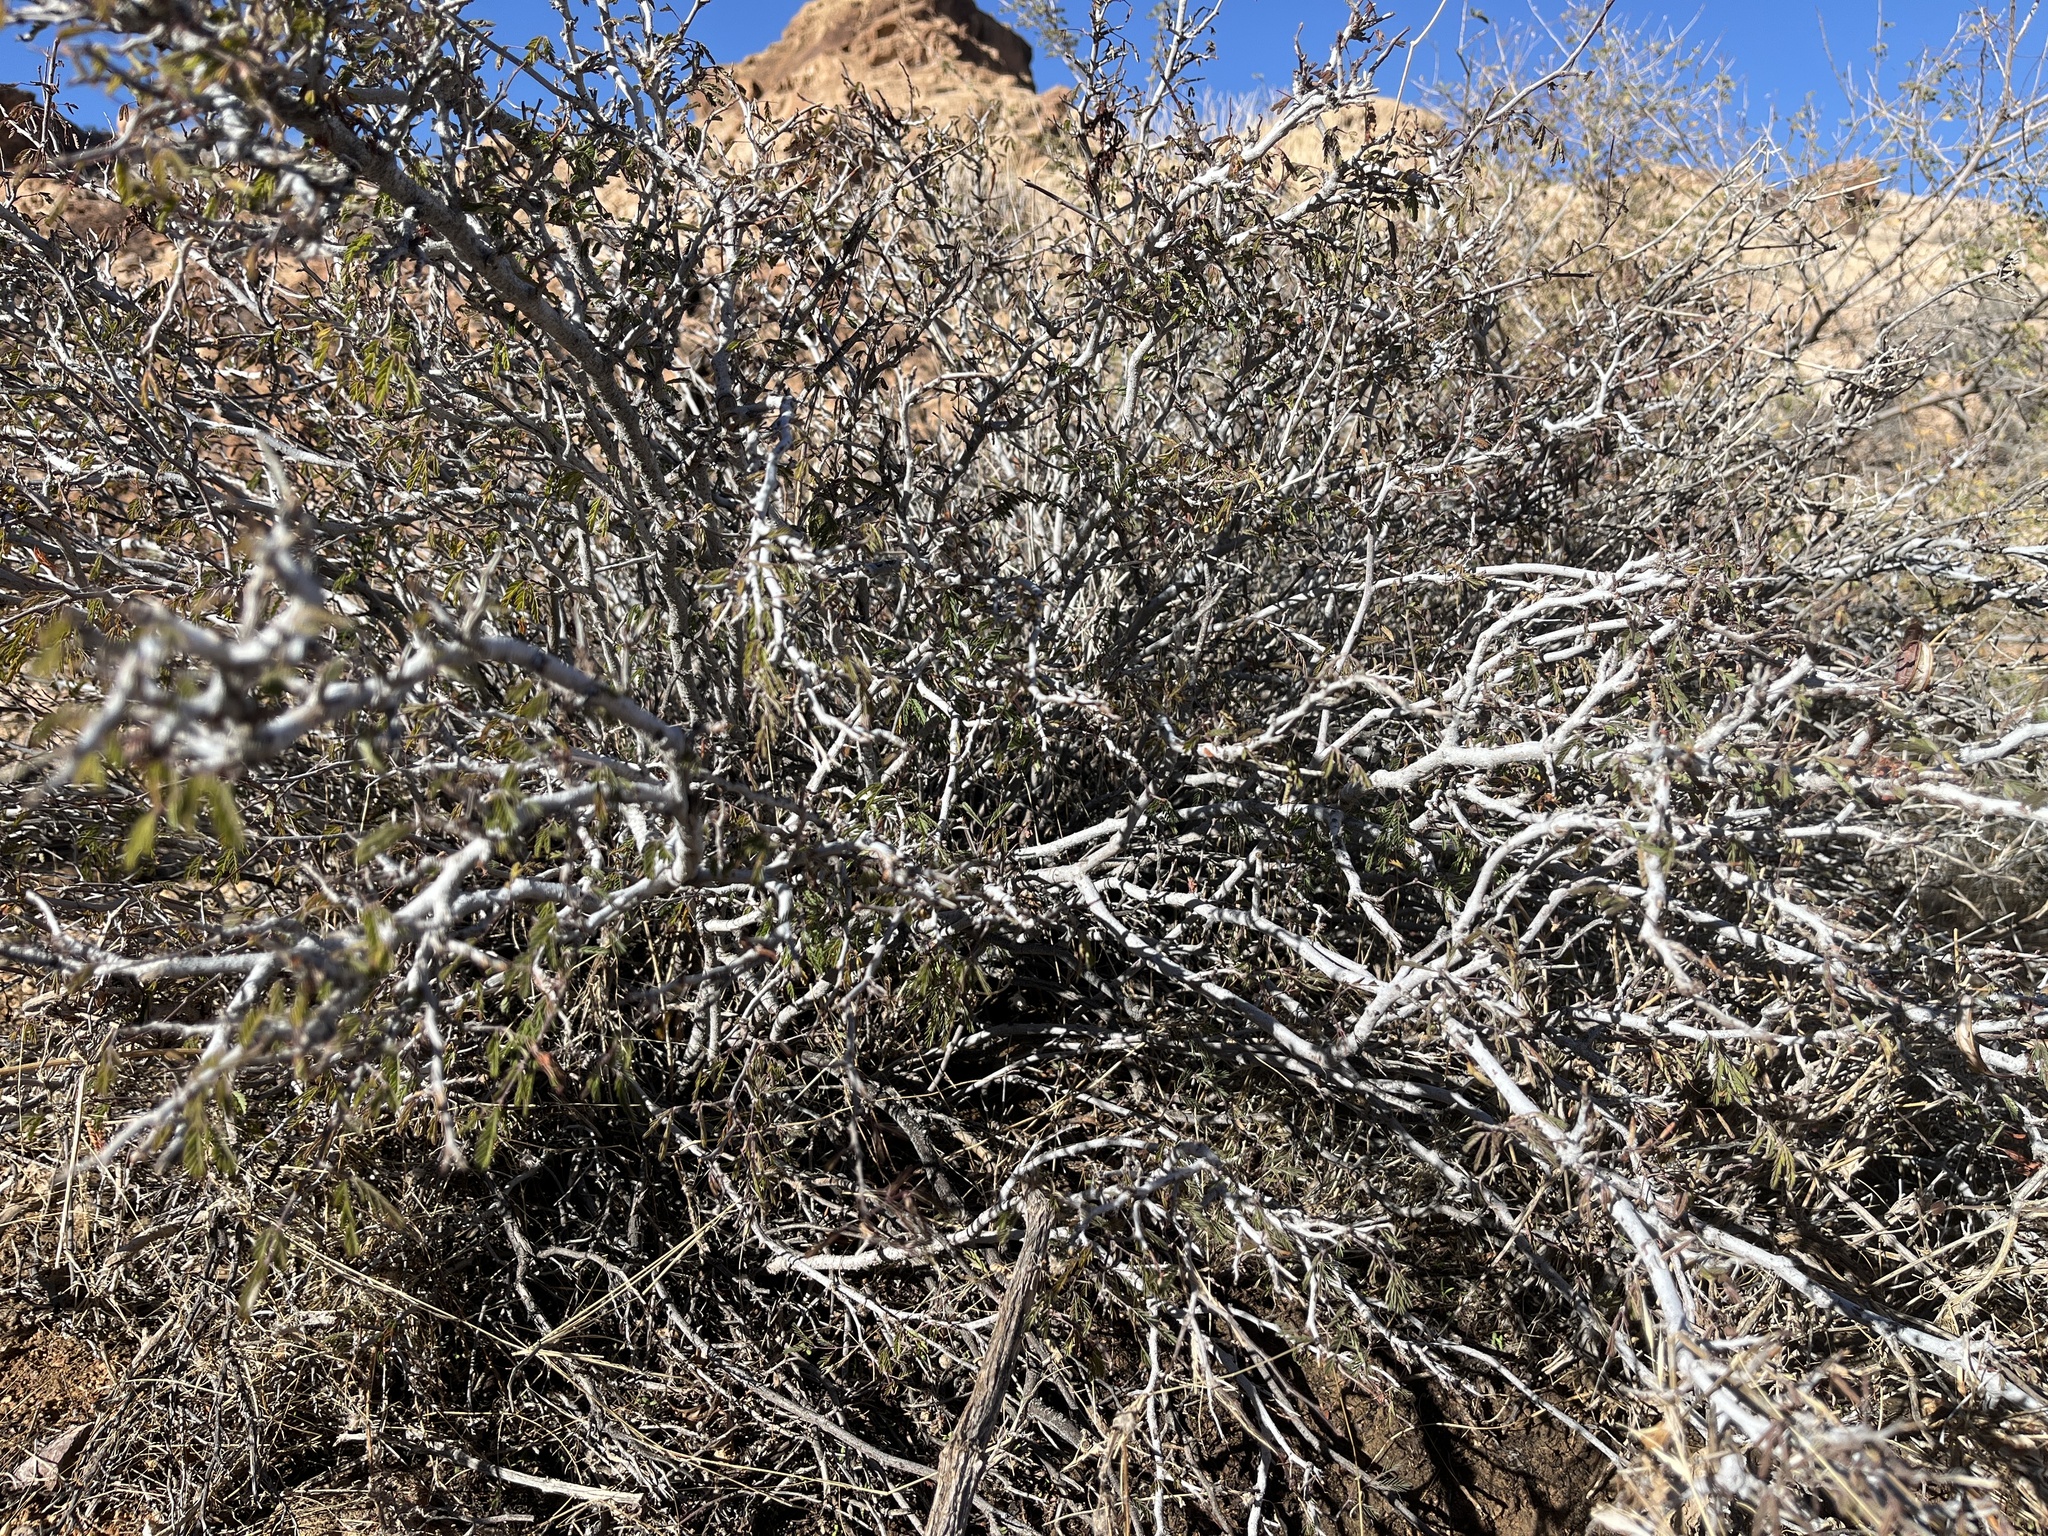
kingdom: Plantae
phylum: Tracheophyta
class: Magnoliopsida
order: Fabales
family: Fabaceae
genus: Calliandra
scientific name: Calliandra eriophylla
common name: Fairy-duster
